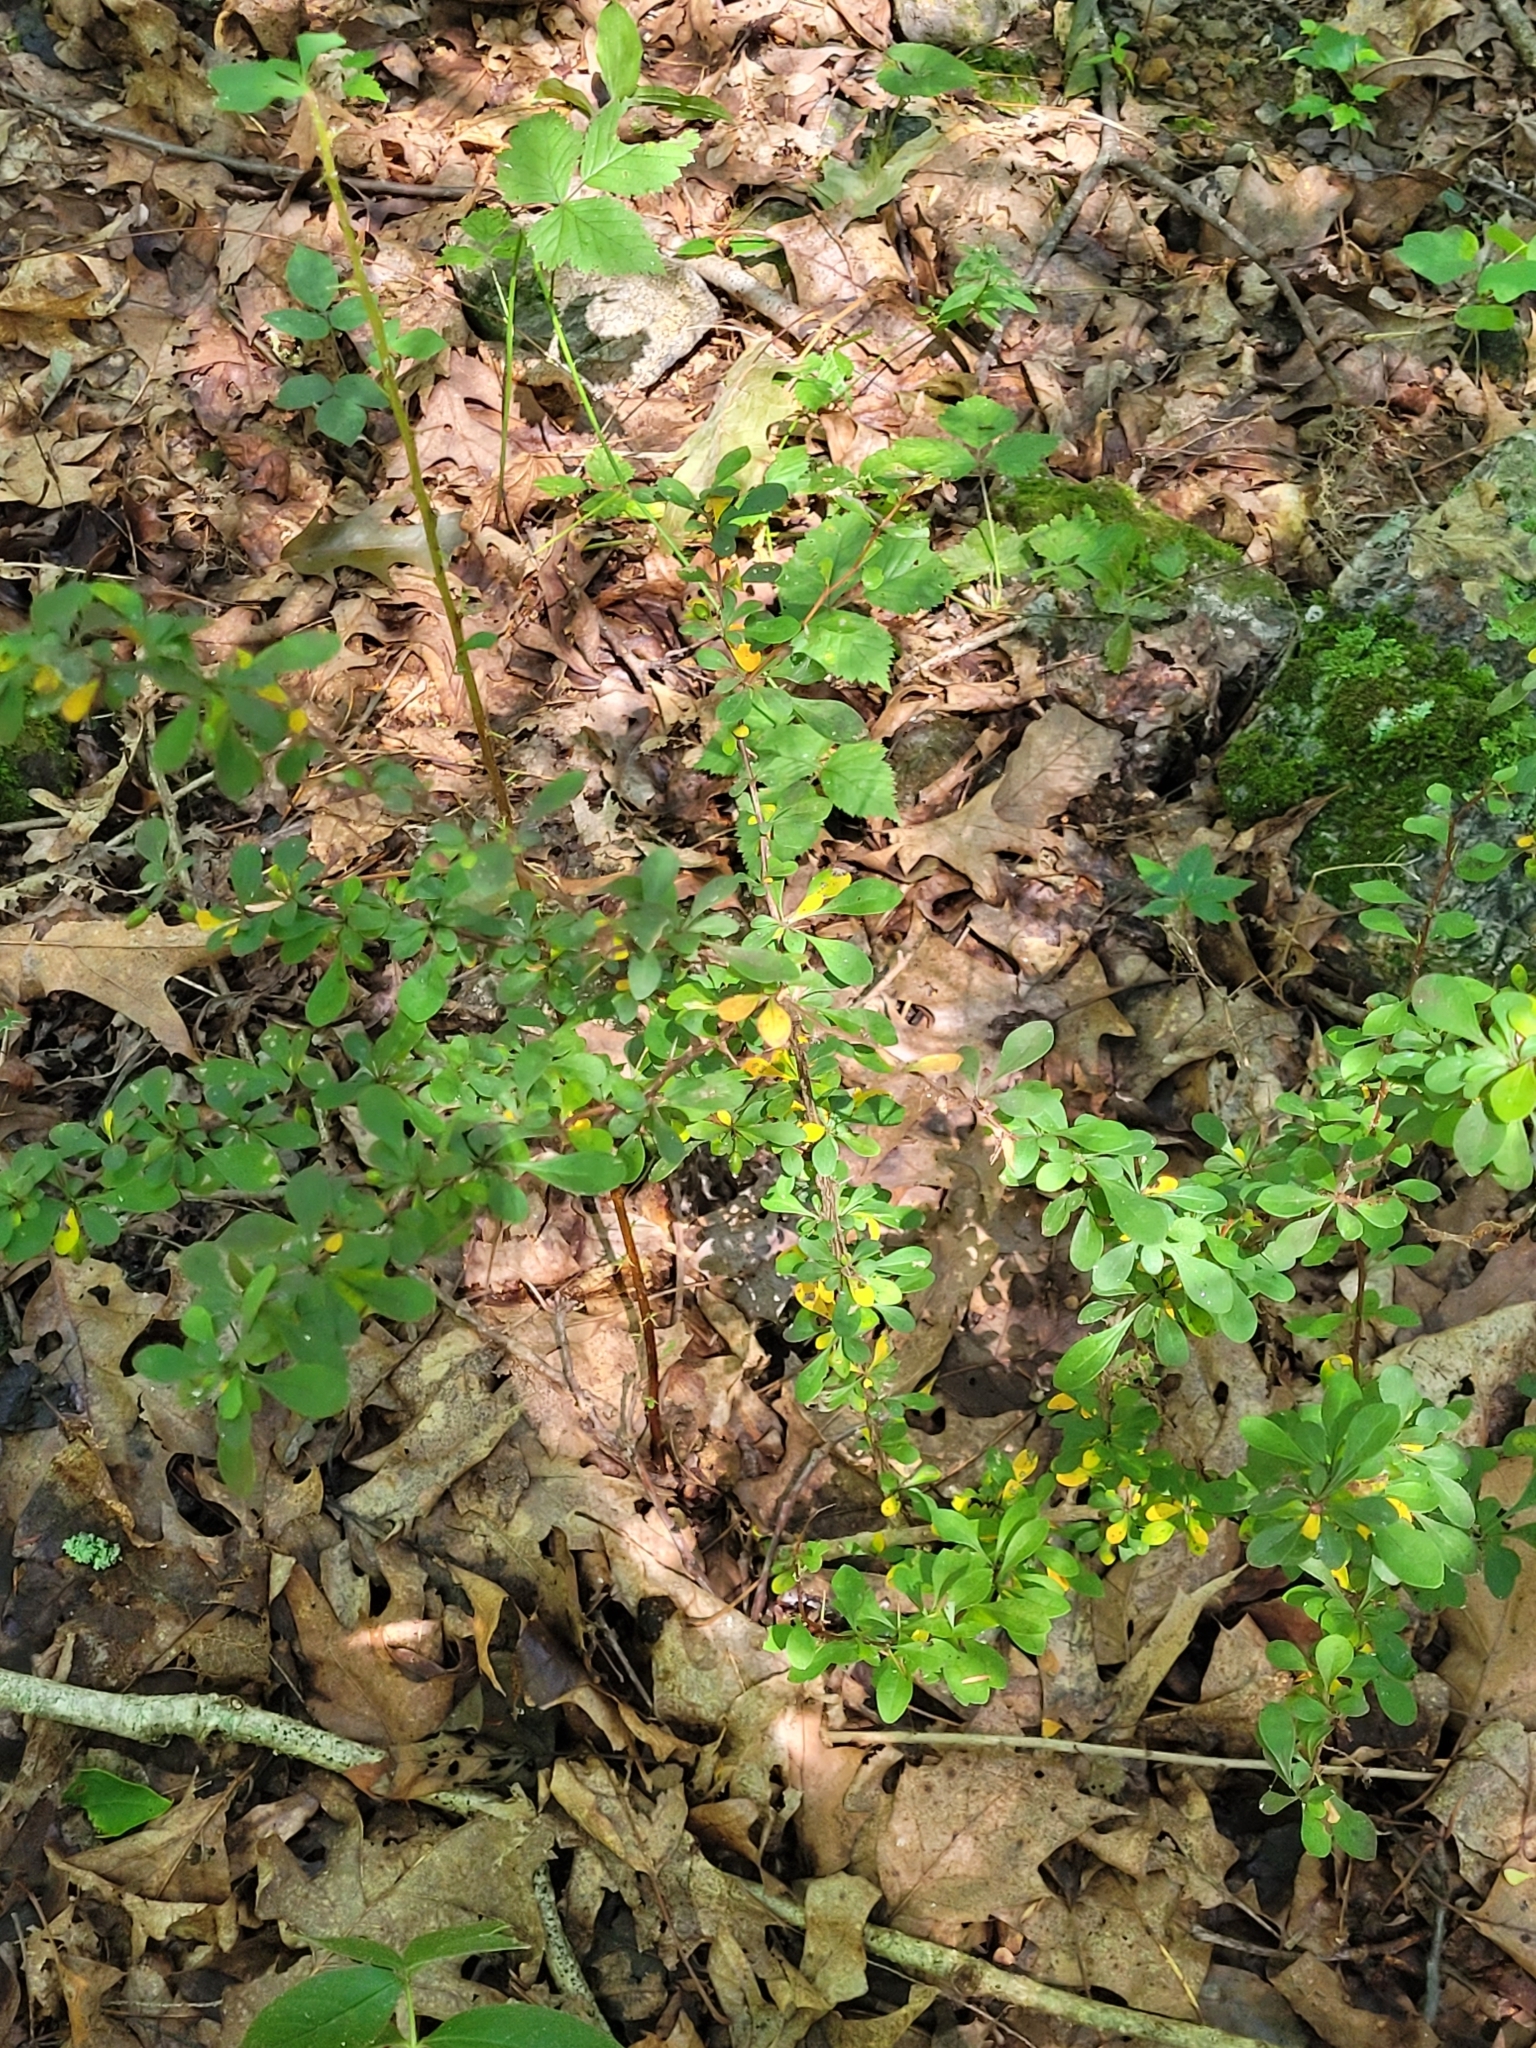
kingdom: Plantae
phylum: Tracheophyta
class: Magnoliopsida
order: Ranunculales
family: Berberidaceae
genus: Berberis
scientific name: Berberis thunbergii
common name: Japanese barberry
